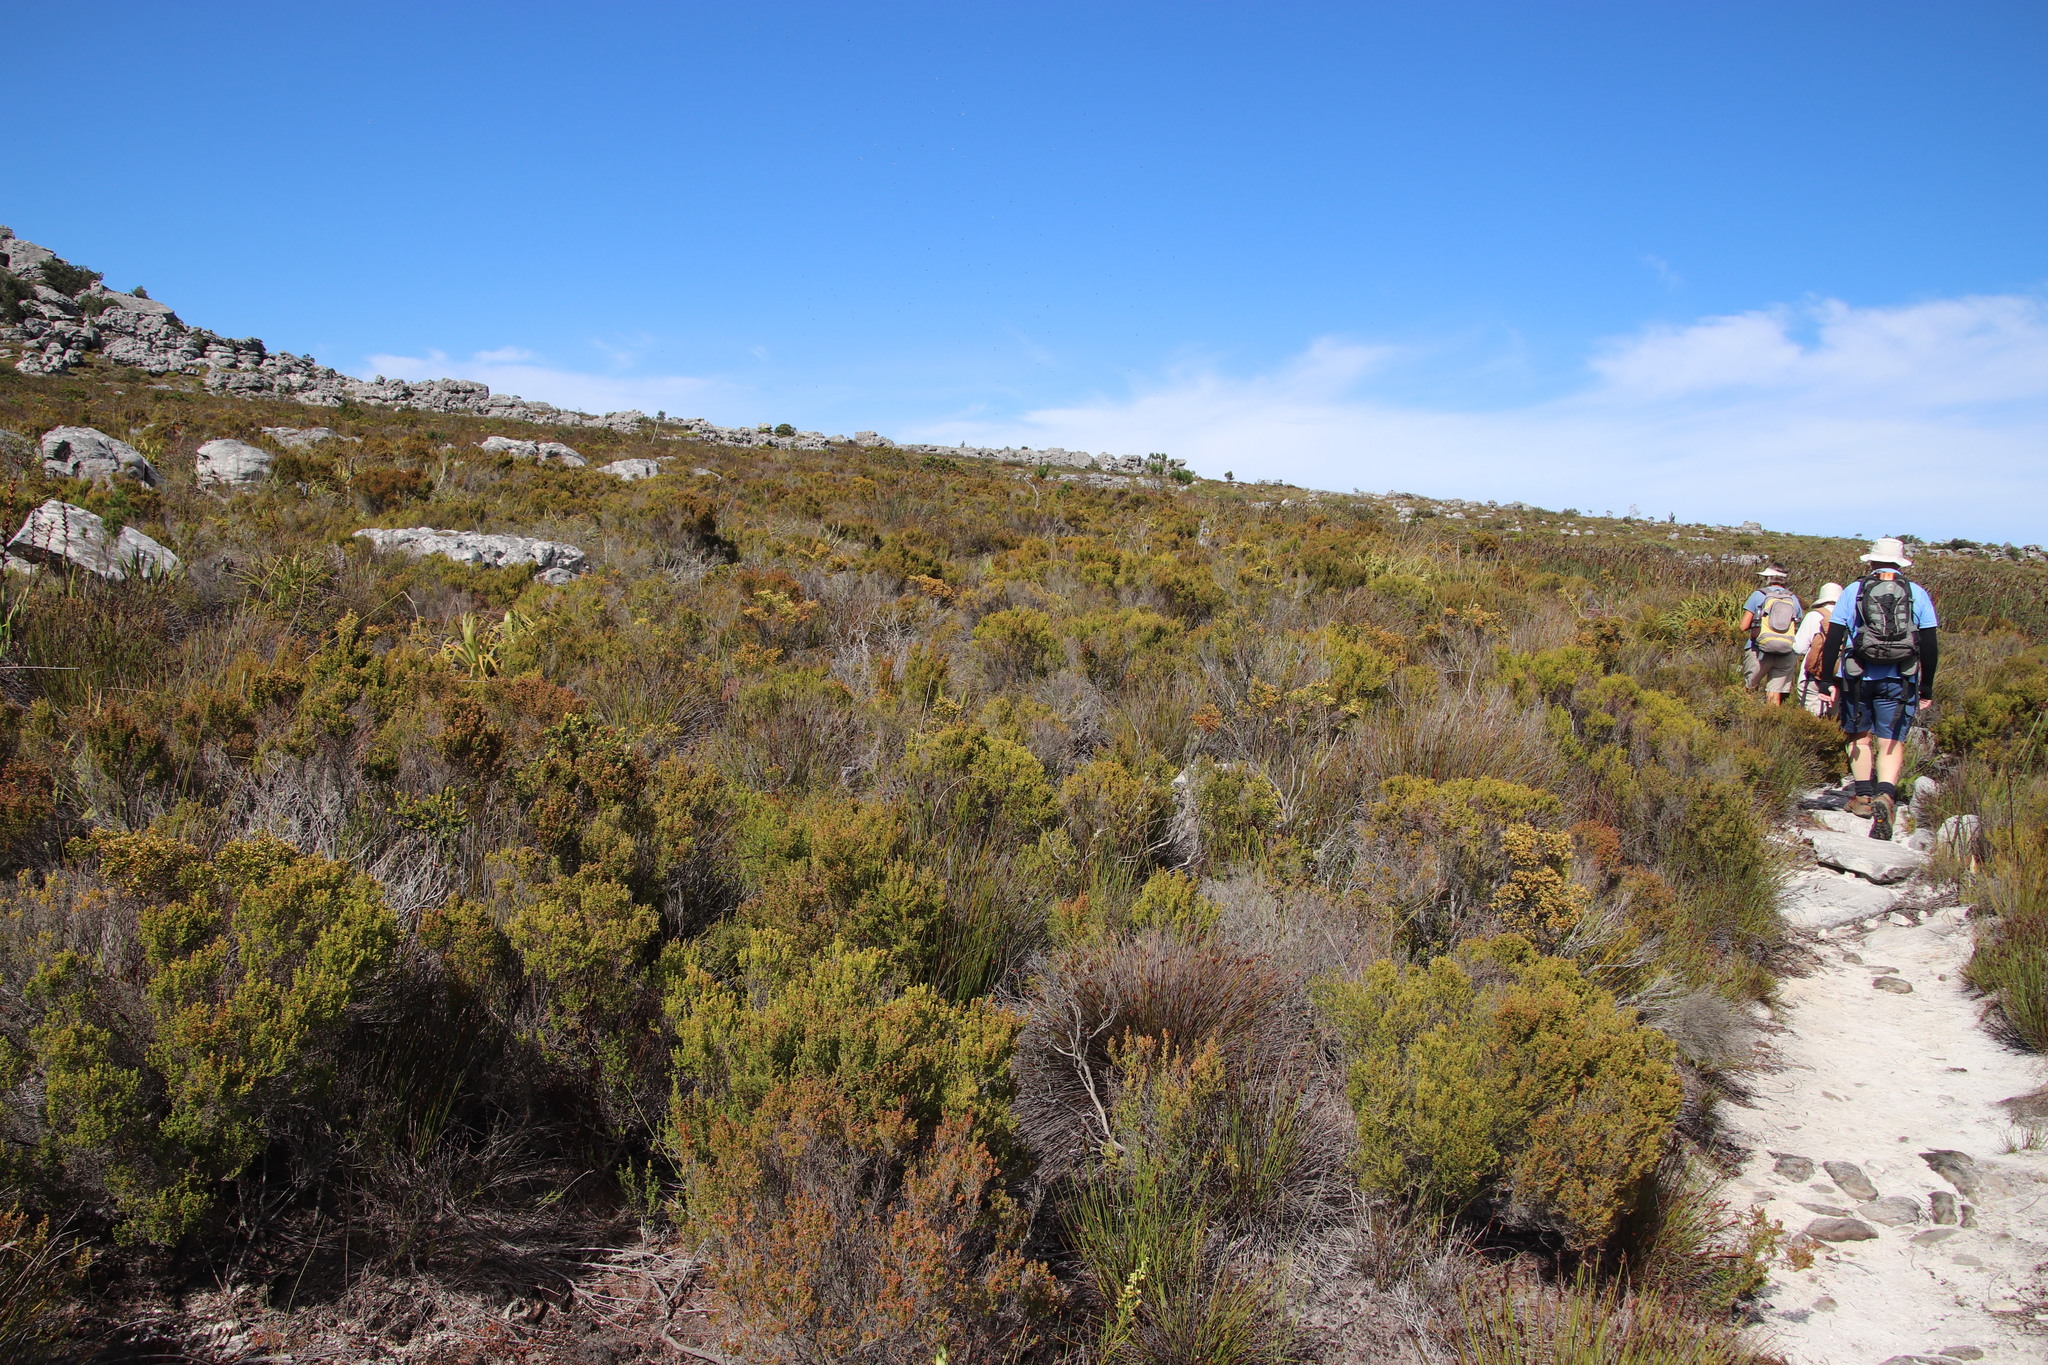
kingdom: Plantae
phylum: Tracheophyta
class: Magnoliopsida
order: Ericales
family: Ericaceae
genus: Erica
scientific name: Erica lutea
